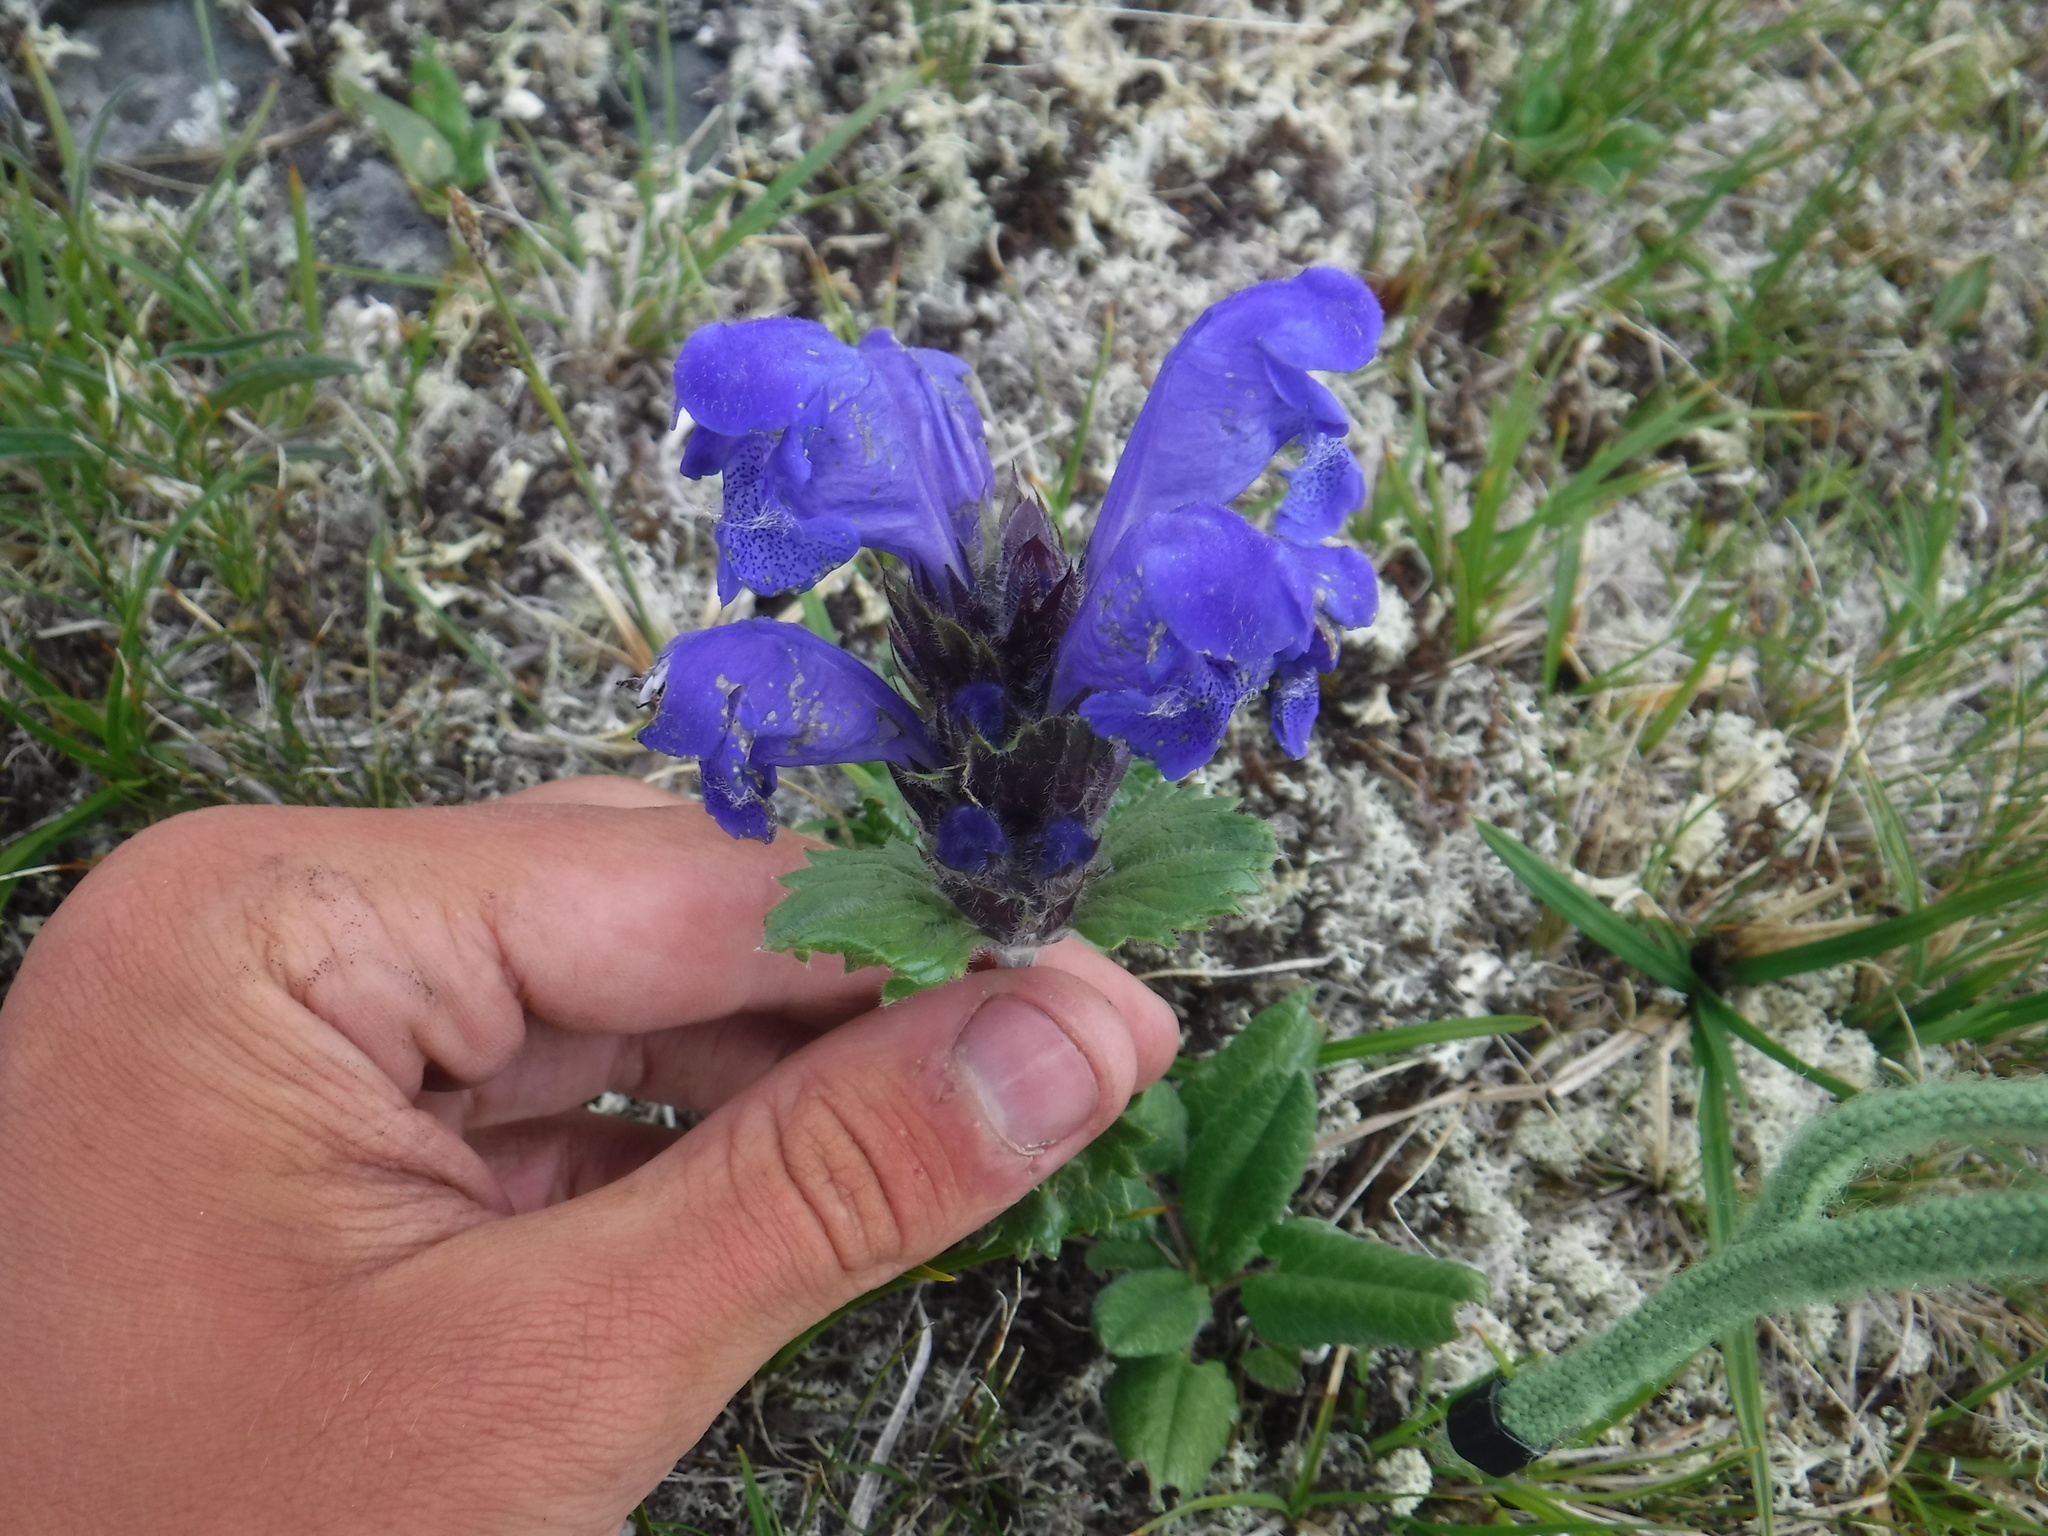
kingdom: Plantae
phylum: Tracheophyta
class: Magnoliopsida
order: Lamiales
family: Lamiaceae
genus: Dracocephalum
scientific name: Dracocephalum grandiflorum
